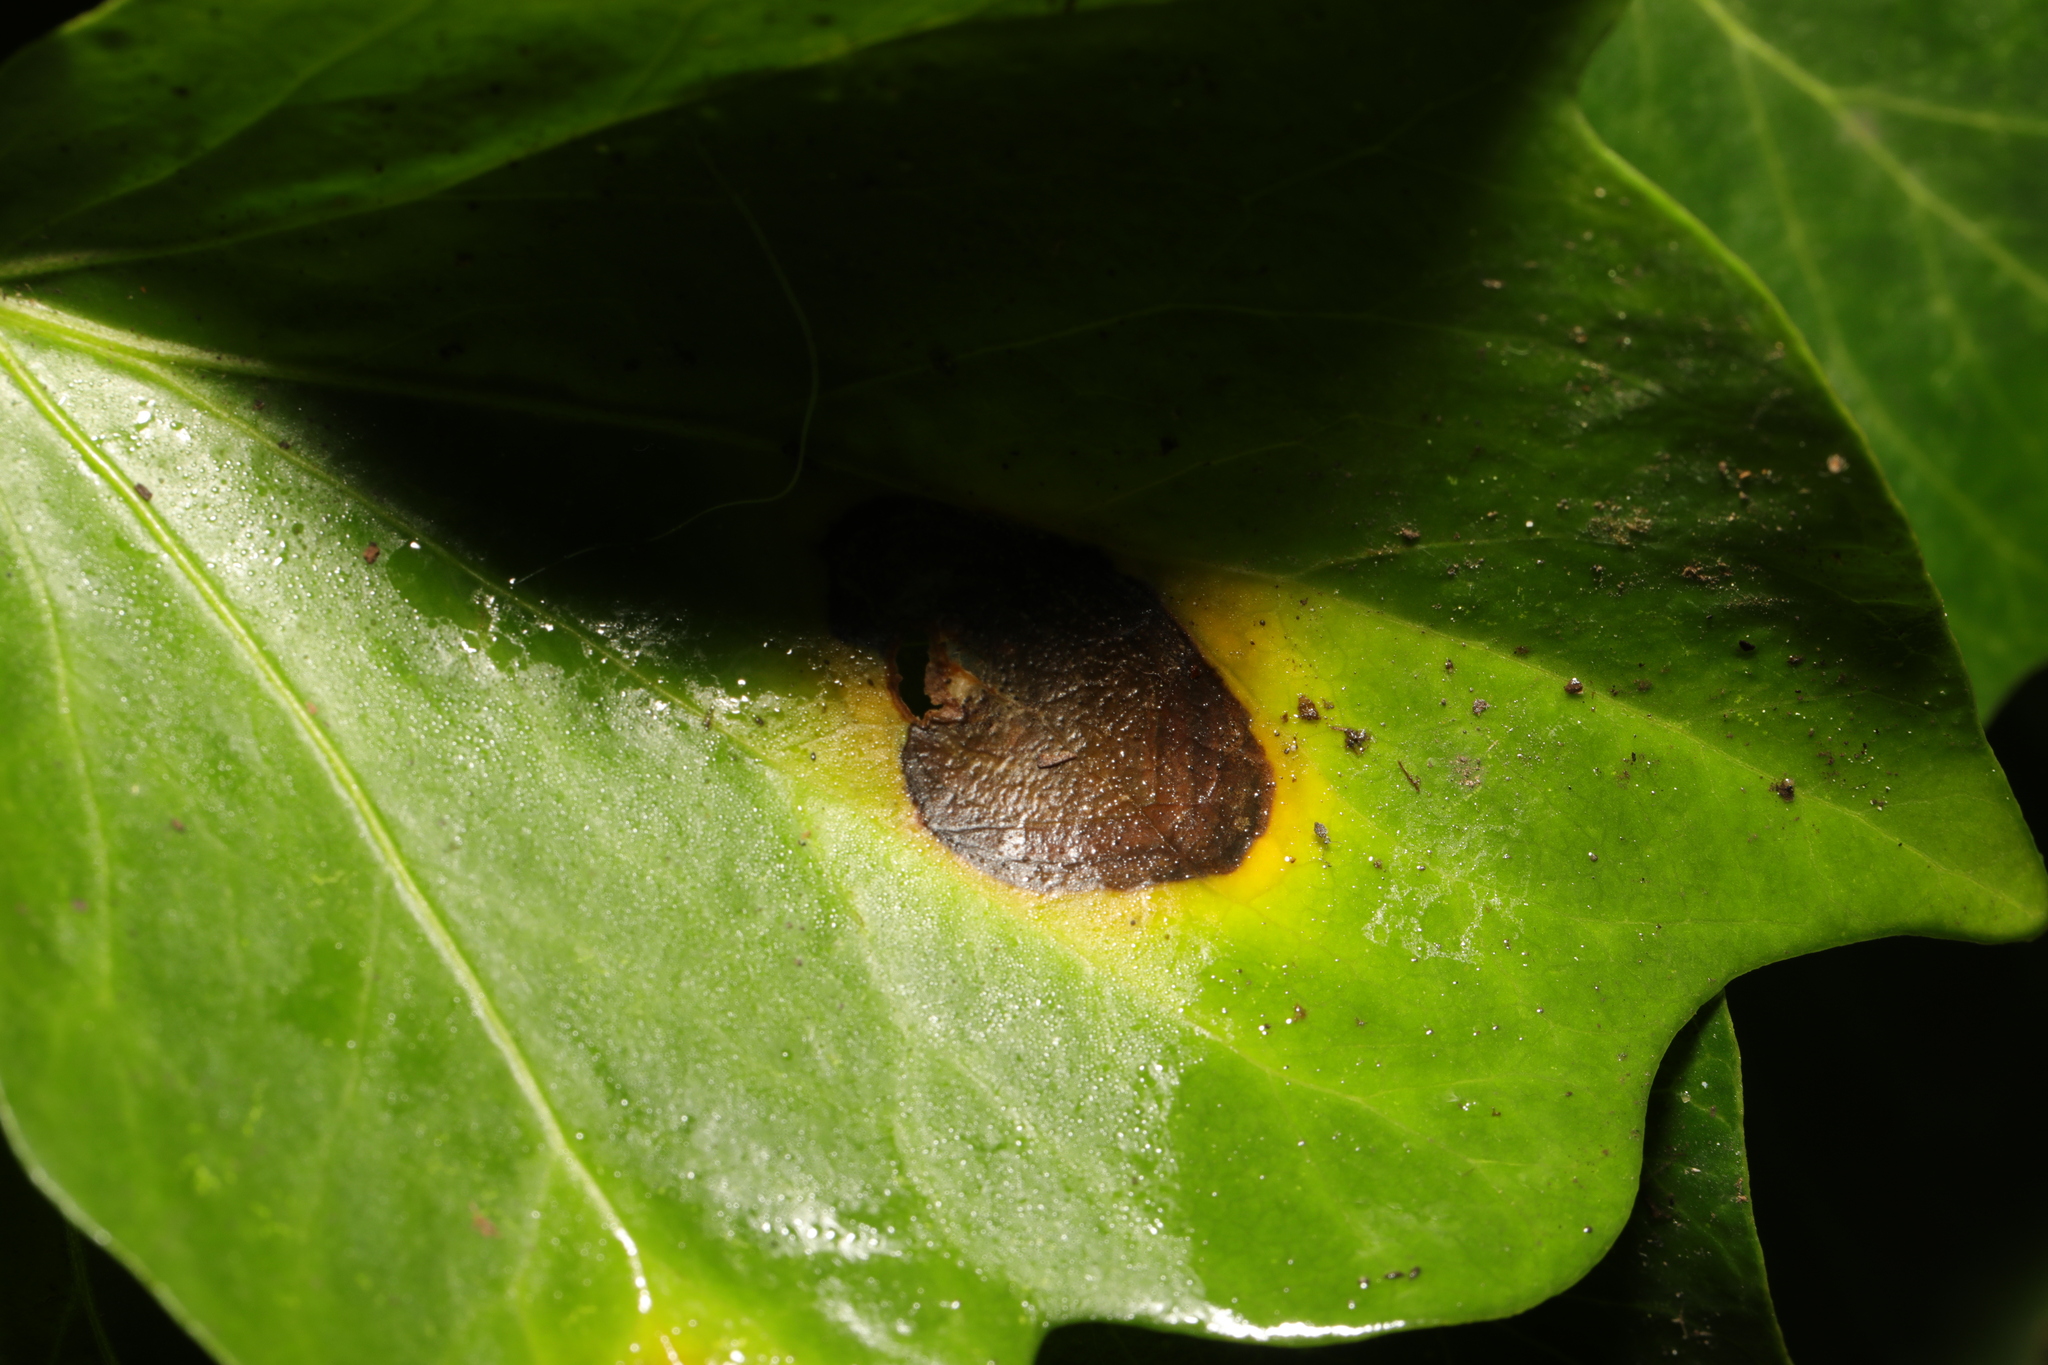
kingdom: Fungi
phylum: Ascomycota
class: Dothideomycetes
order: Pleosporales
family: Didymellaceae
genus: Boeremia
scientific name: Boeremia hedericola
